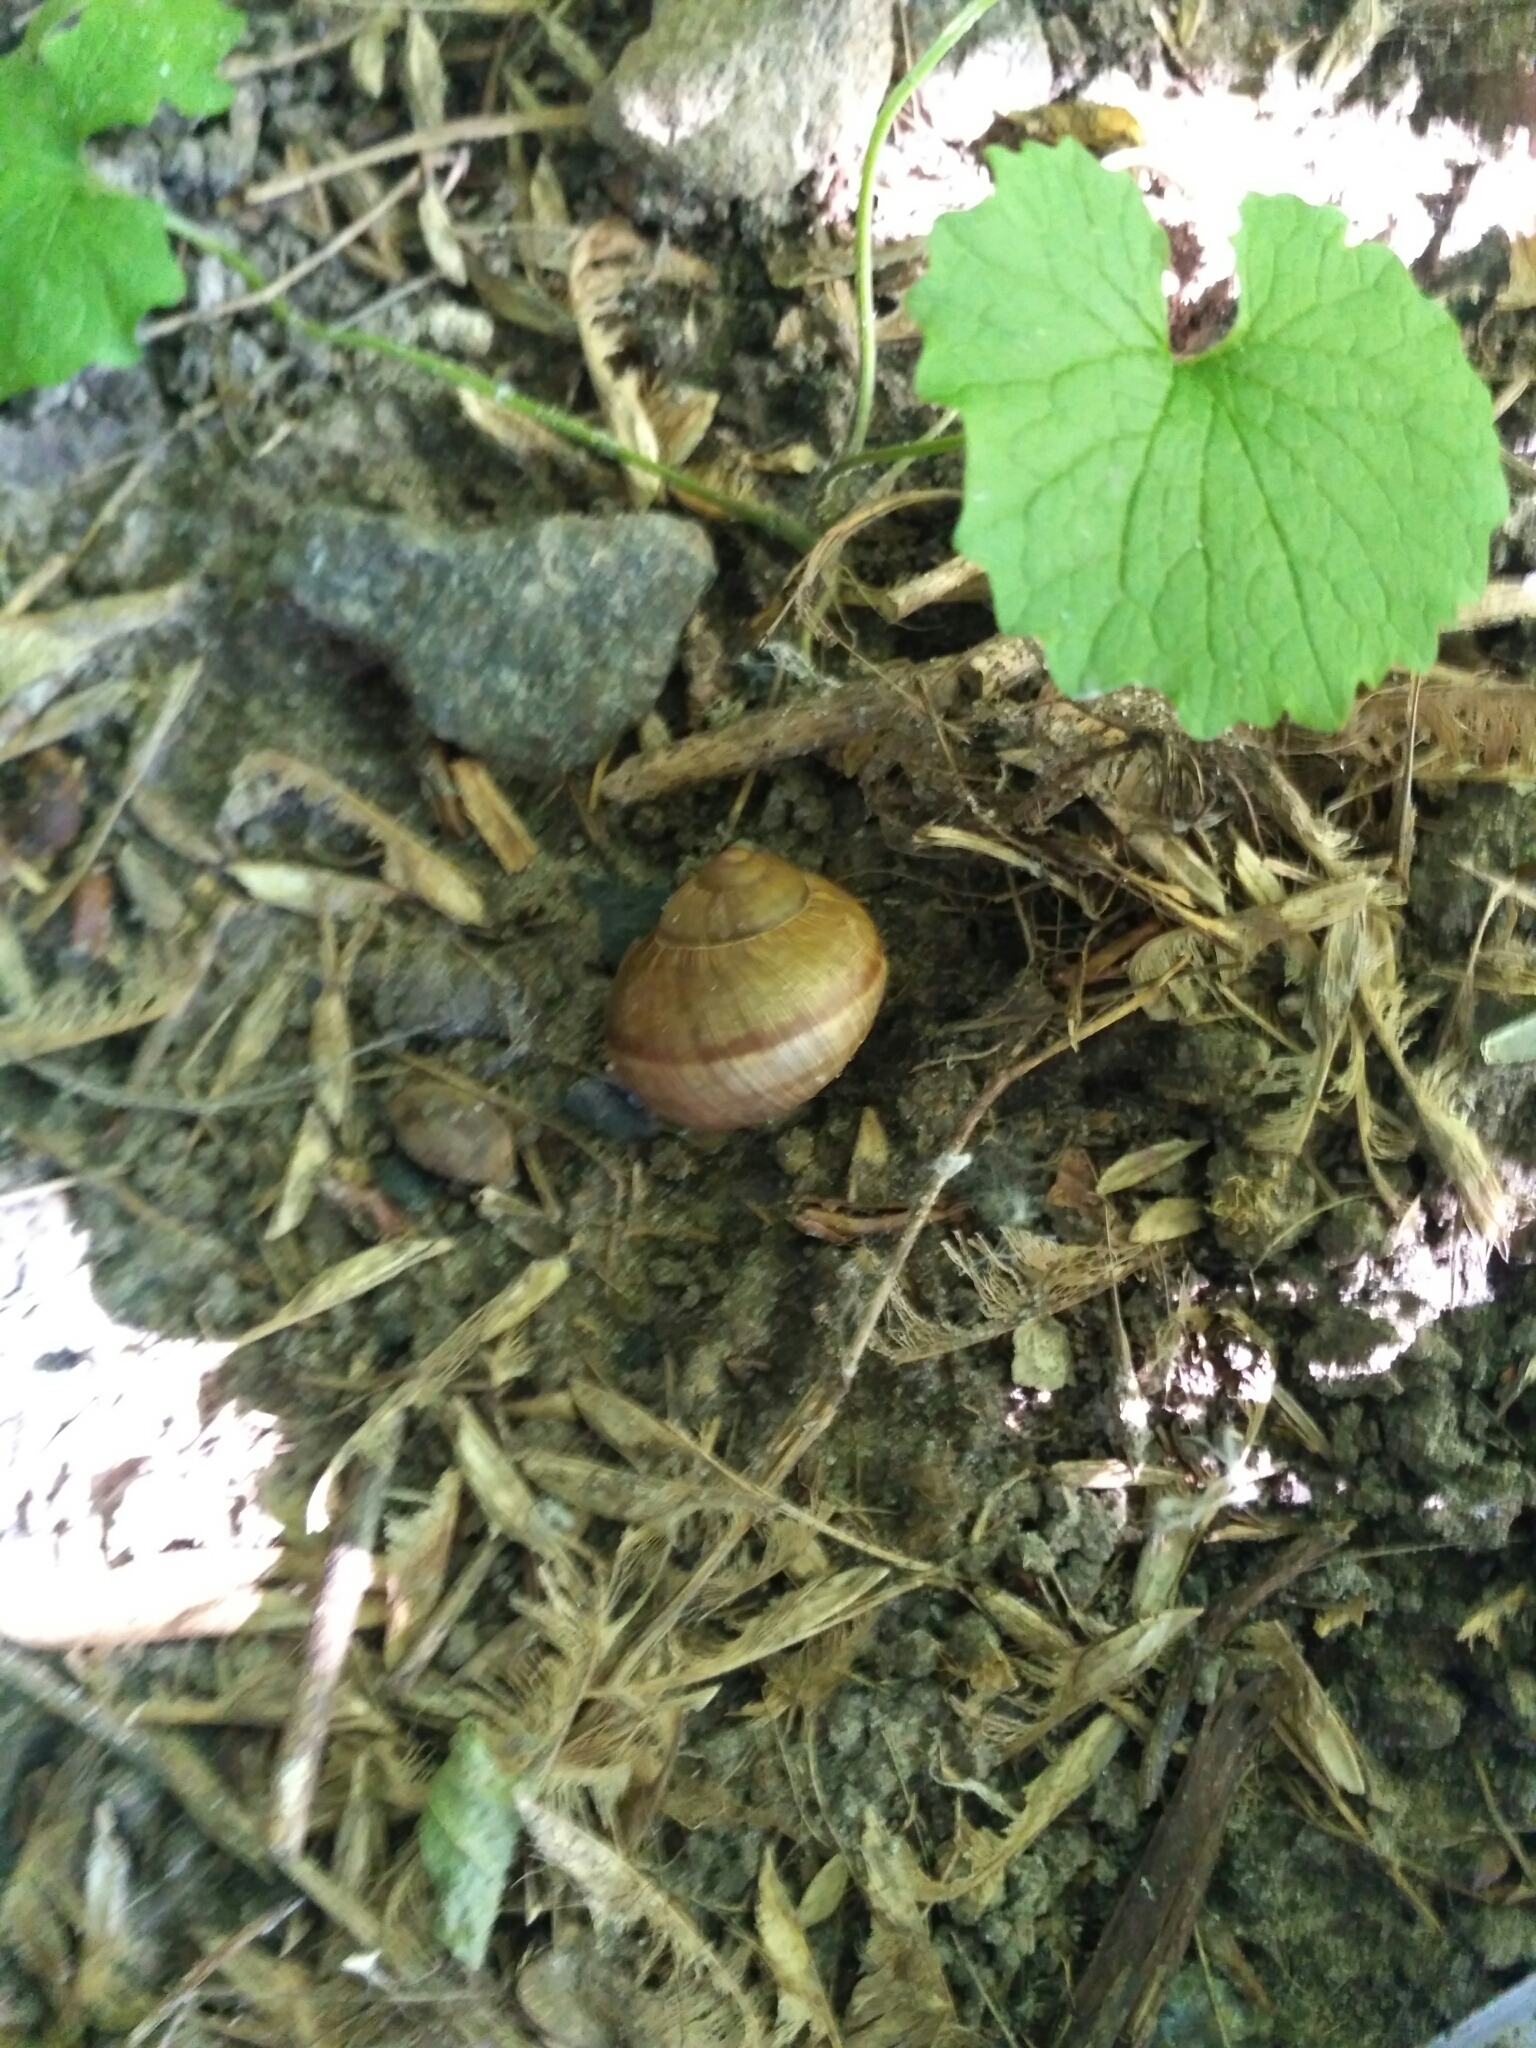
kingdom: Animalia
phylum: Mollusca
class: Gastropoda
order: Stylommatophora
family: Helicidae
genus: Helix
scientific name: Helix pomatia
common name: Roman snail
